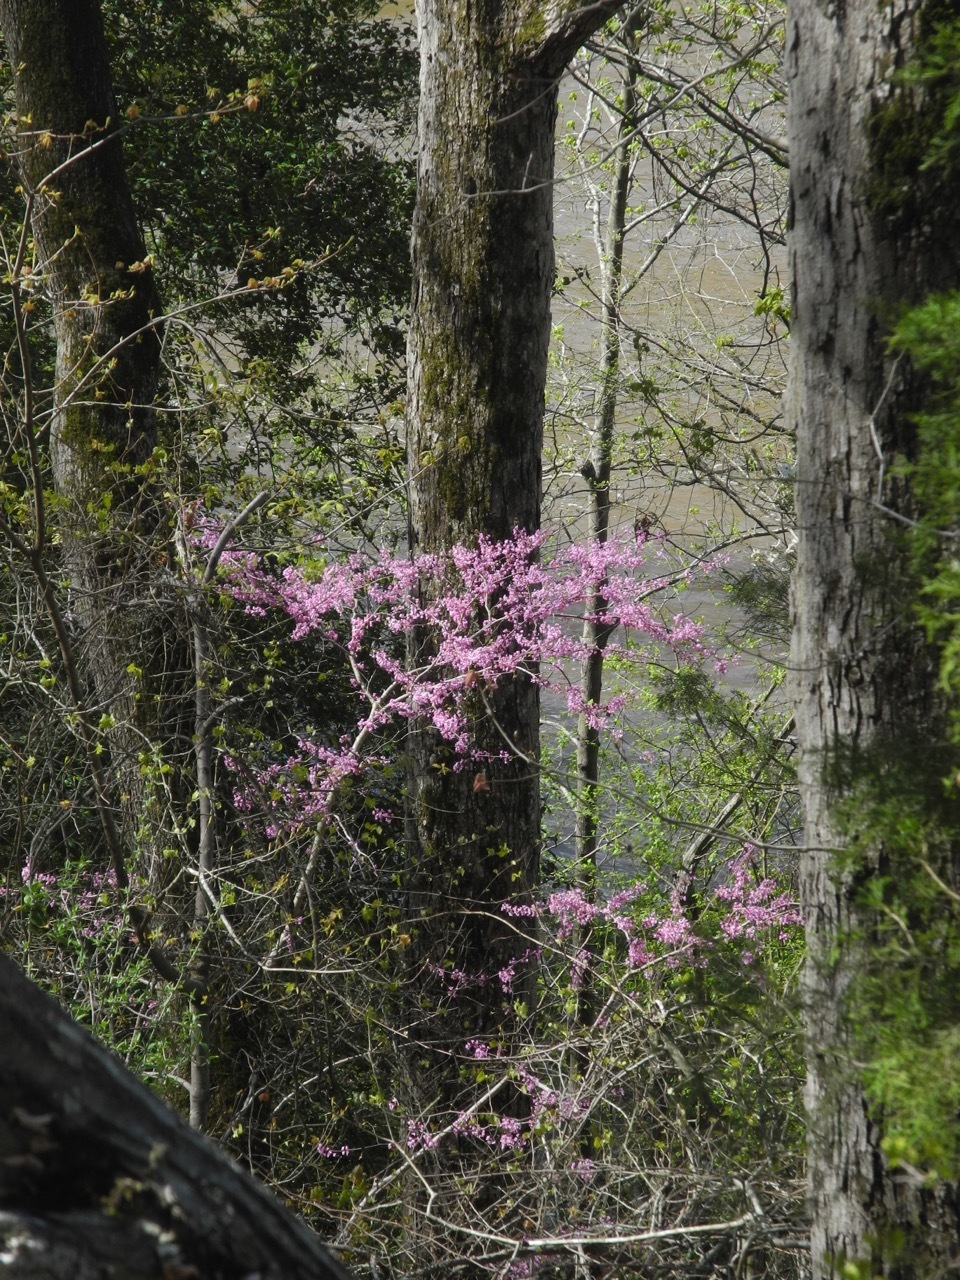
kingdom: Plantae
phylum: Tracheophyta
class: Magnoliopsida
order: Fabales
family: Fabaceae
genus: Cercis
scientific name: Cercis canadensis
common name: Eastern redbud
